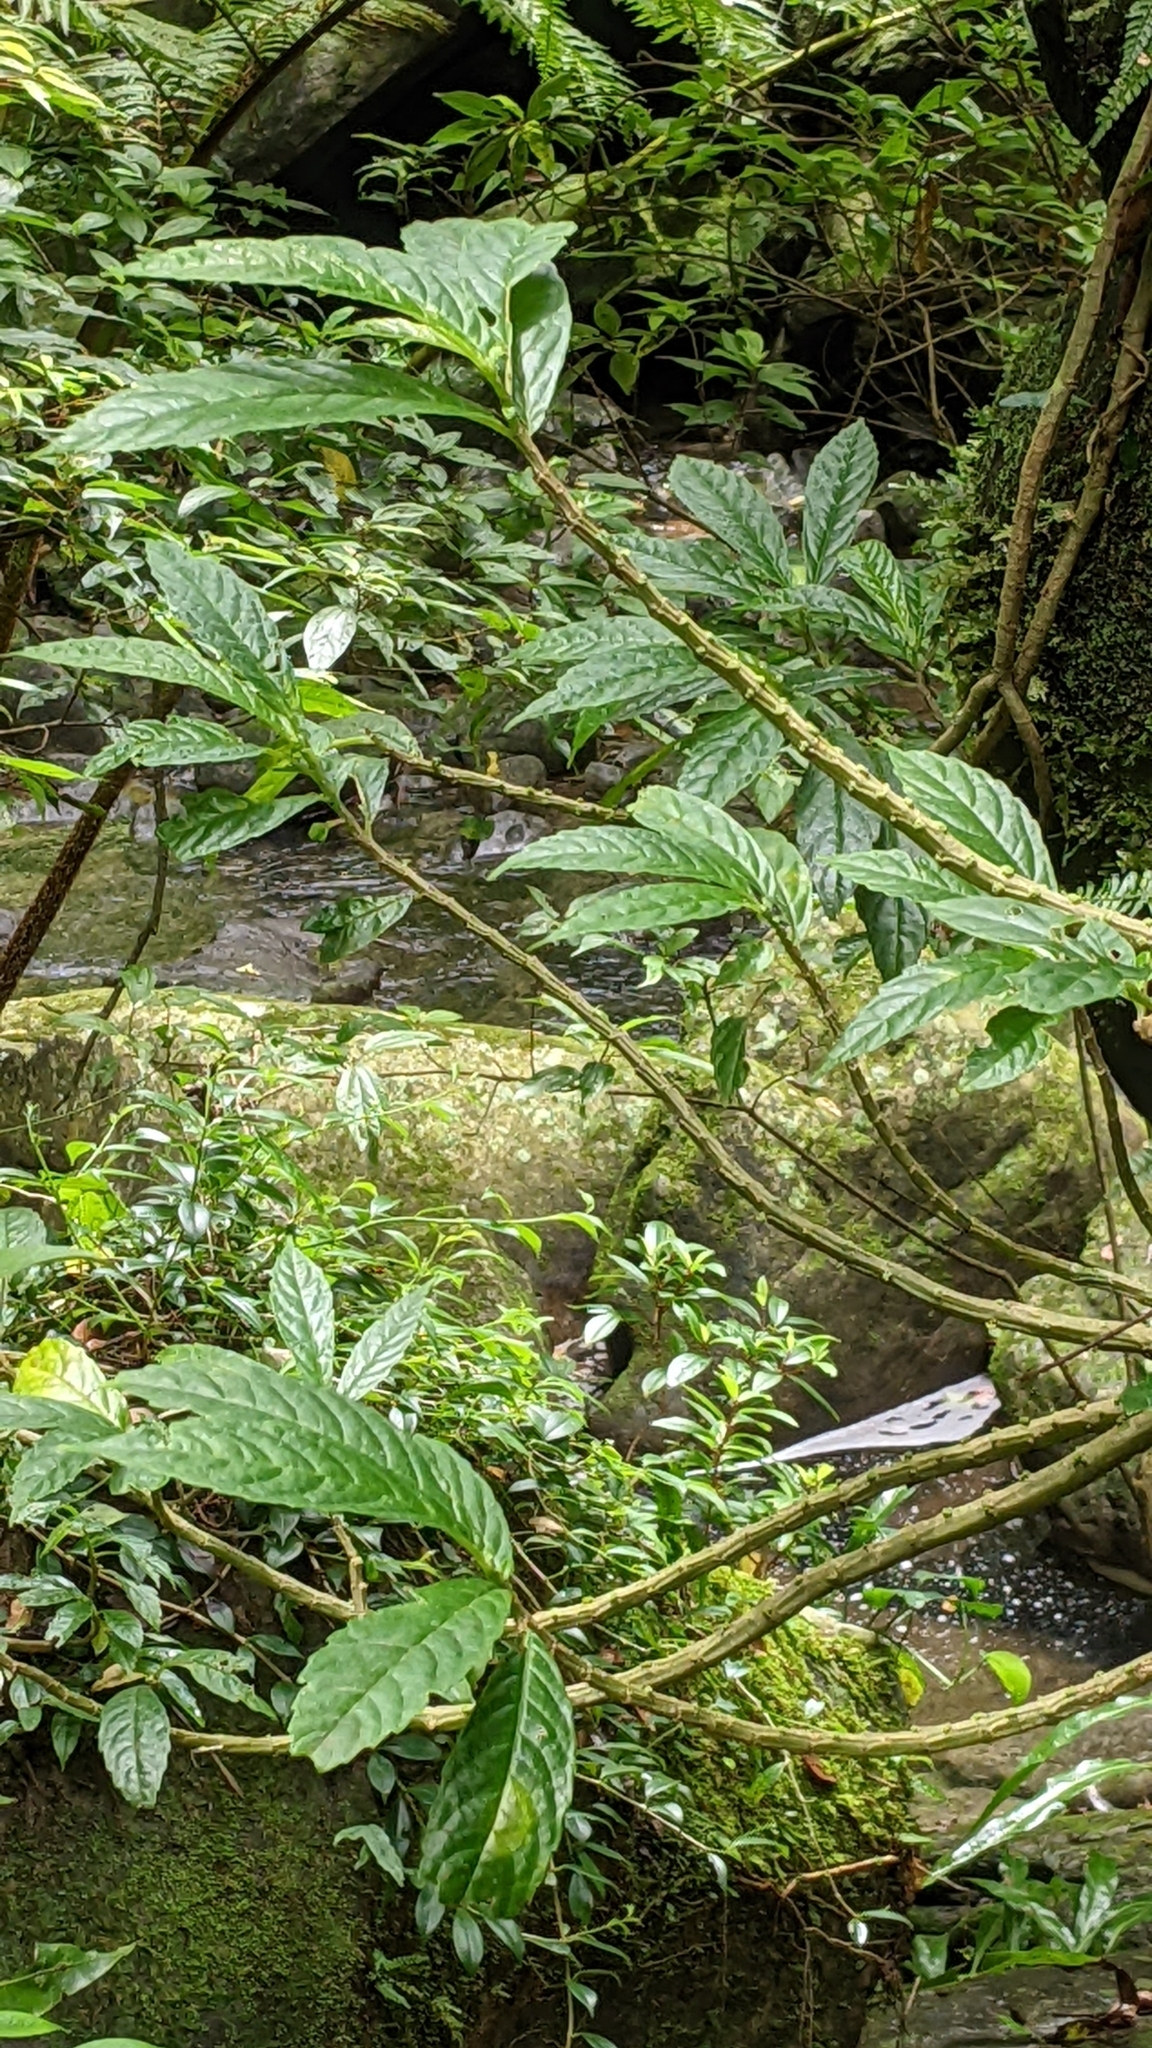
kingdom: Plantae
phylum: Tracheophyta
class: Magnoliopsida
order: Rosales
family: Urticaceae
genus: Procris
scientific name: Procris
